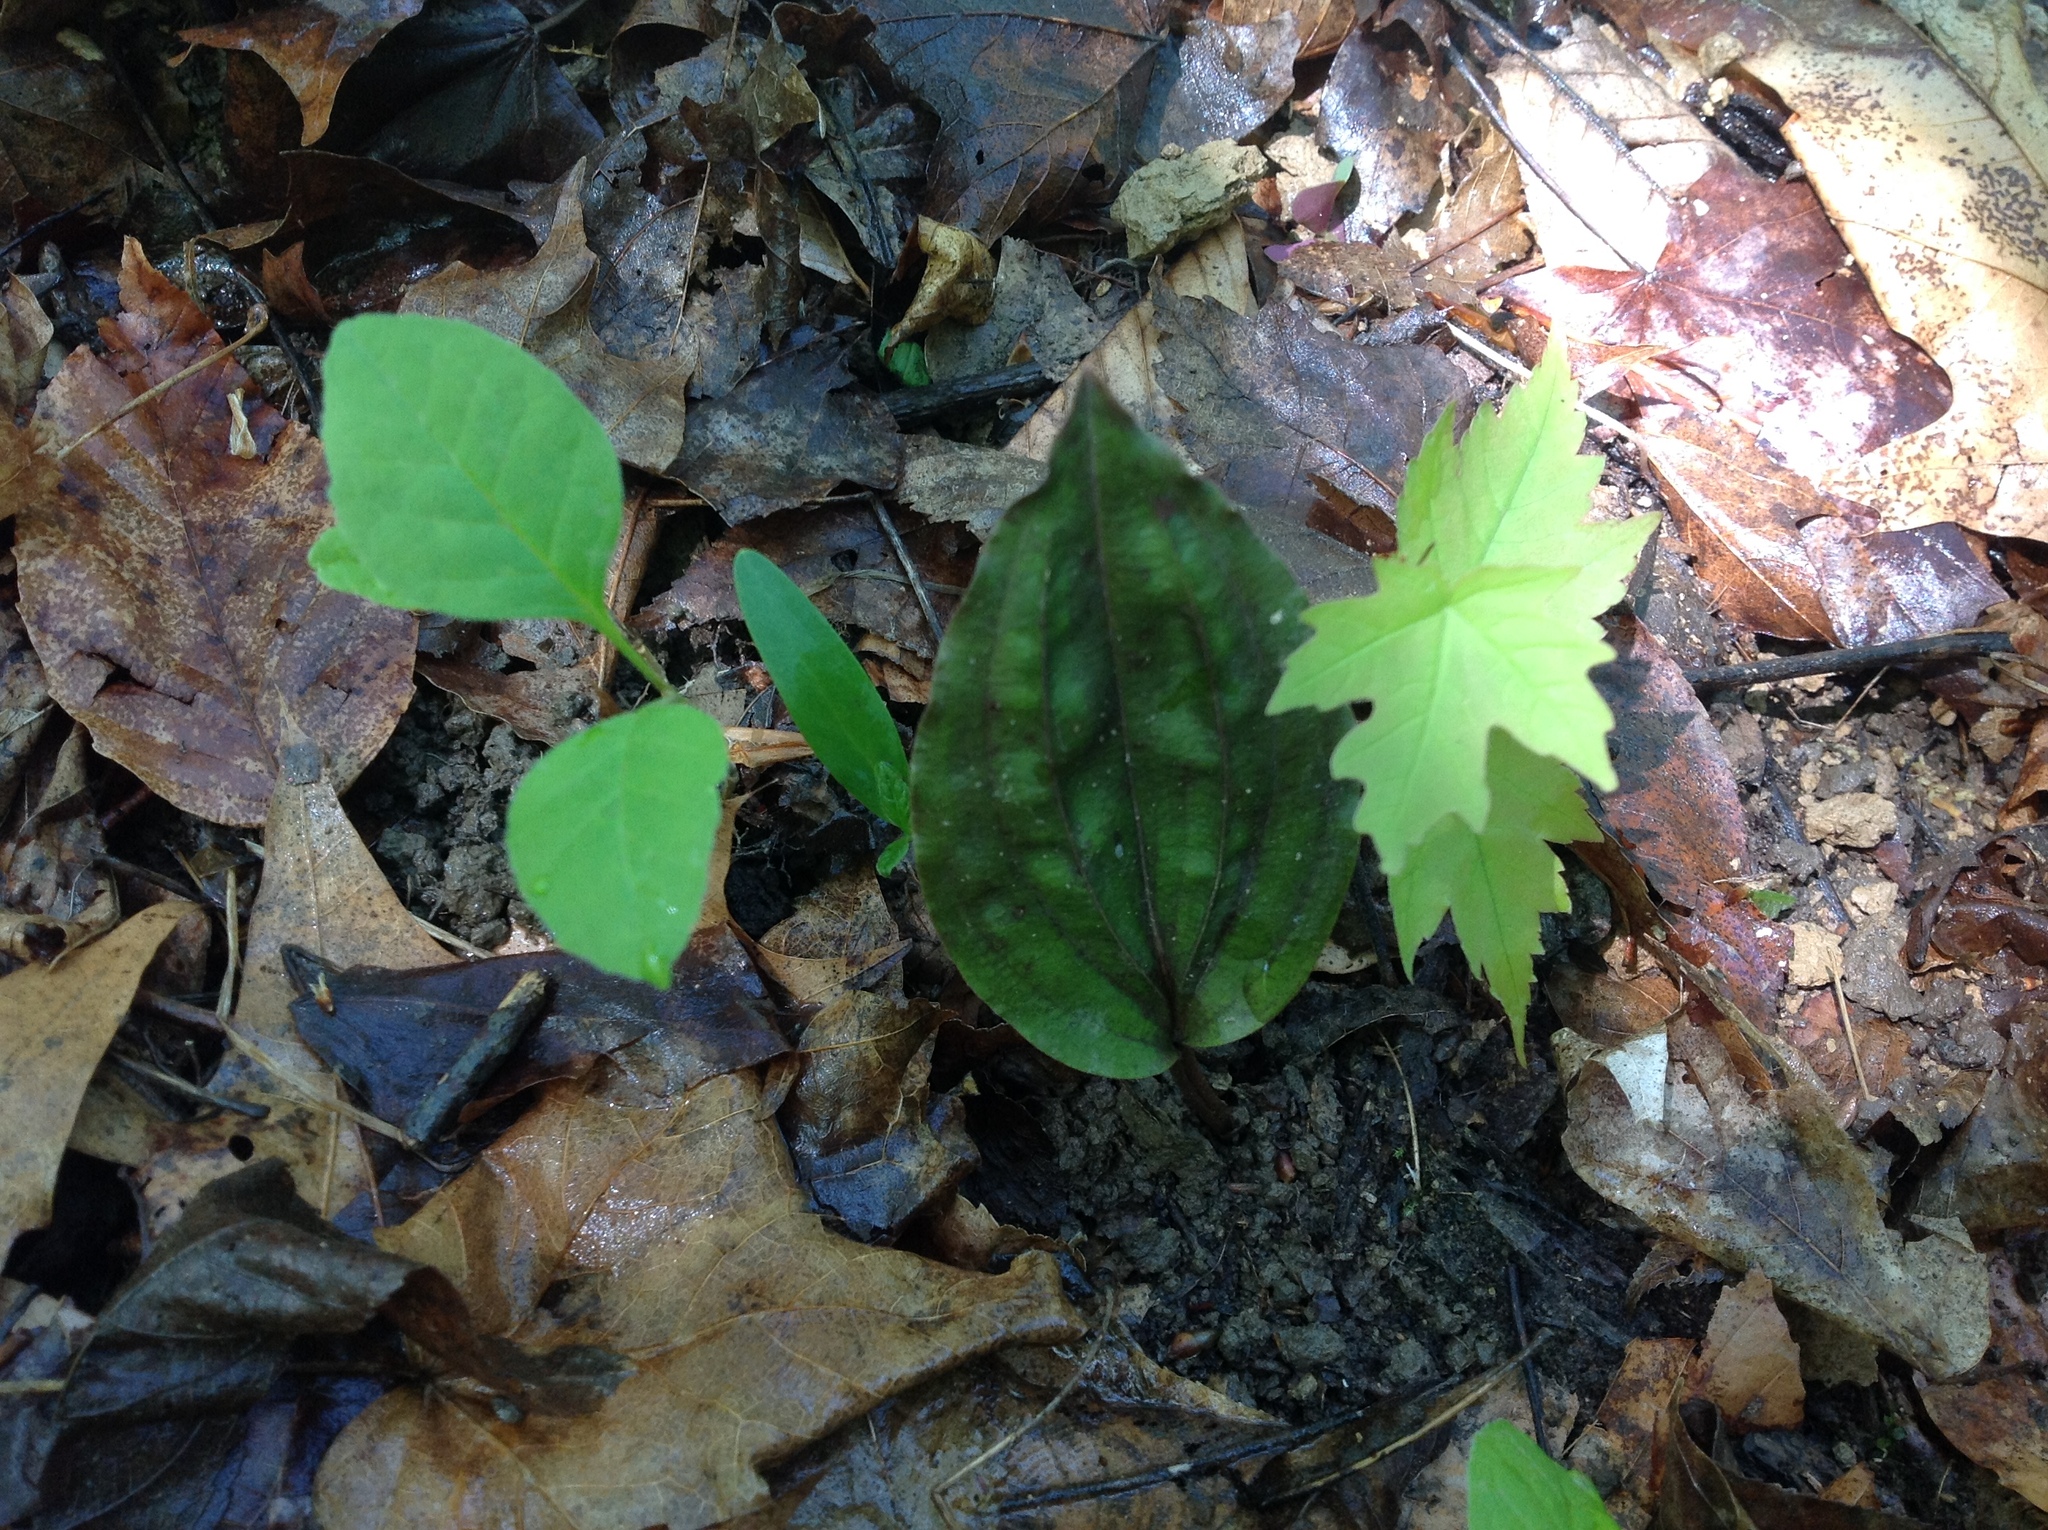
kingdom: Plantae
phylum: Tracheophyta
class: Liliopsida
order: Asparagales
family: Orchidaceae
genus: Tipularia
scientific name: Tipularia discolor
